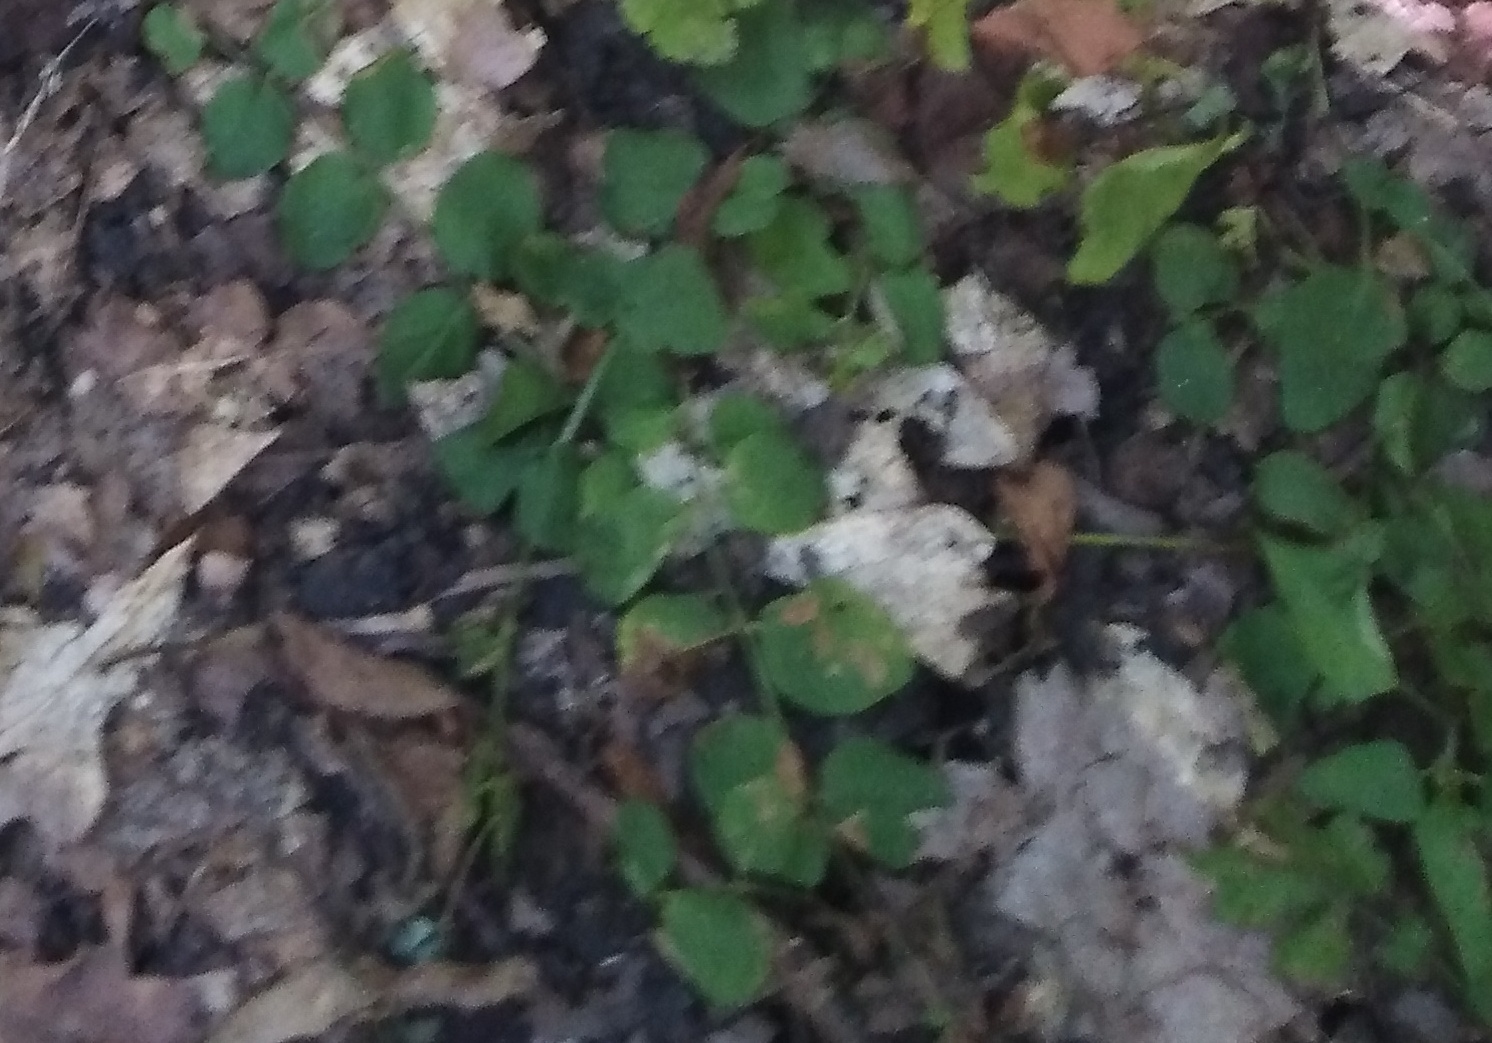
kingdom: Plantae
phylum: Tracheophyta
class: Magnoliopsida
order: Ericales
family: Primulaceae
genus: Lysimachia
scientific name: Lysimachia nummularia
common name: Moneywort
